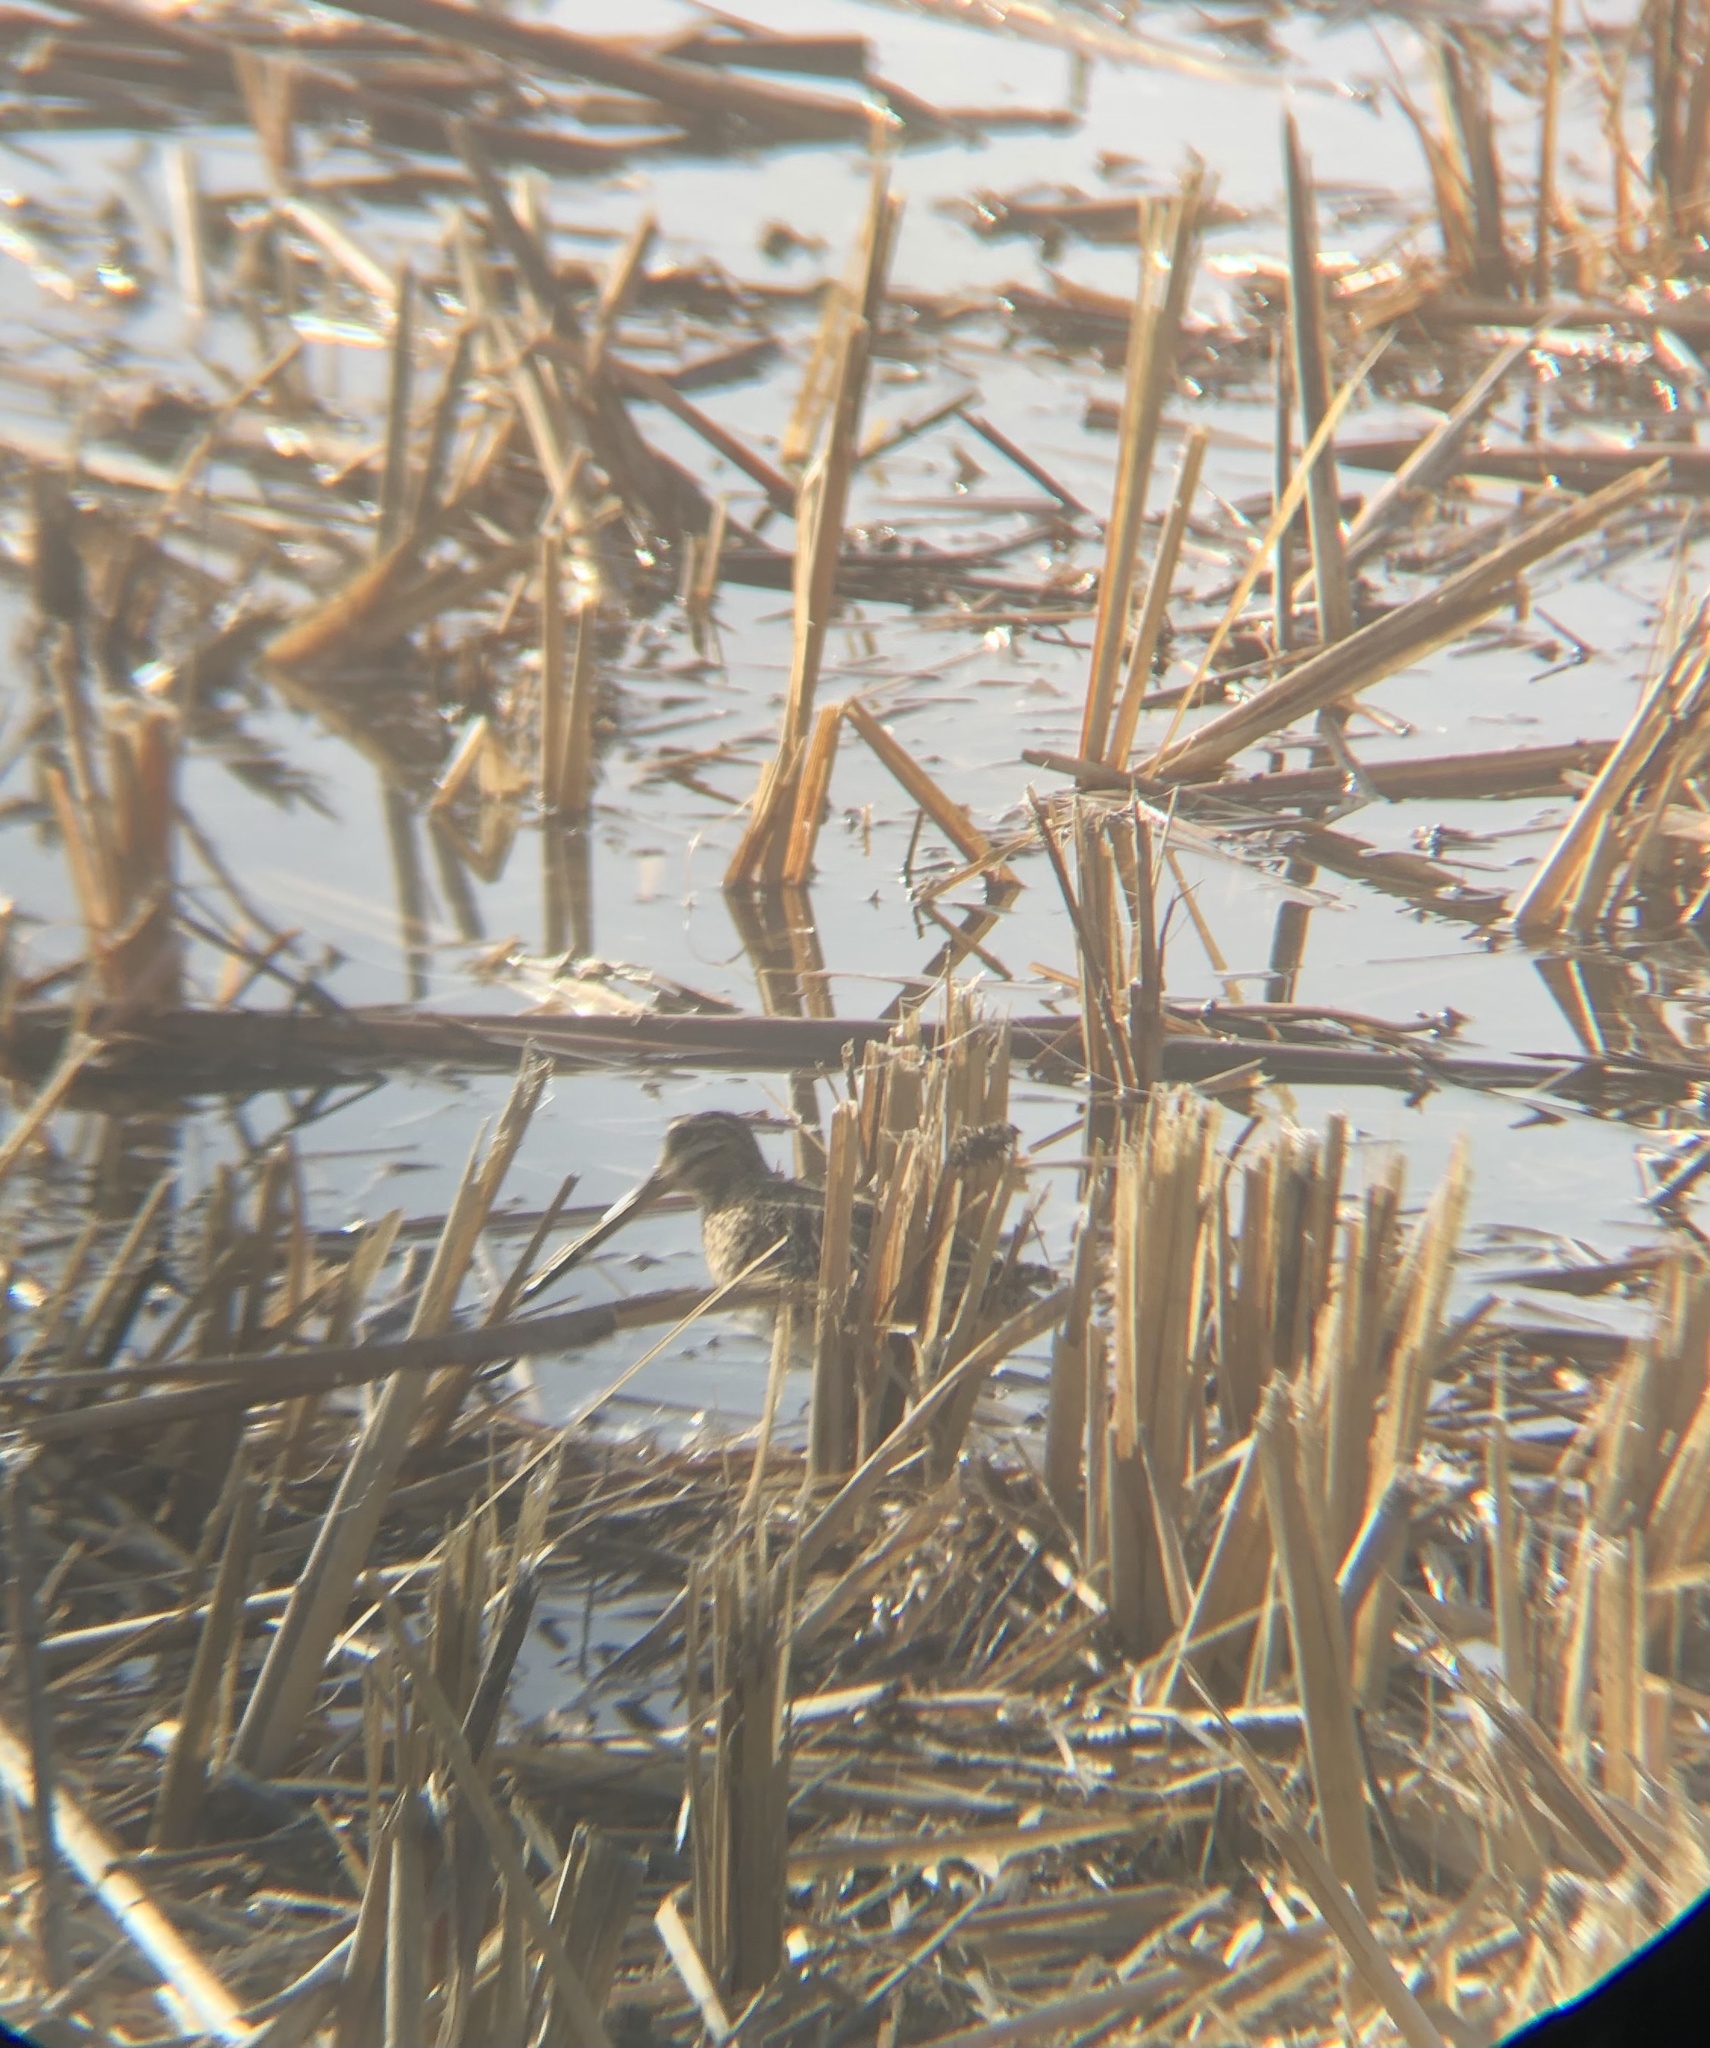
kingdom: Animalia
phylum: Chordata
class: Aves
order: Charadriiformes
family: Scolopacidae
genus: Gallinago
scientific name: Gallinago delicata
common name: Wilson's snipe
